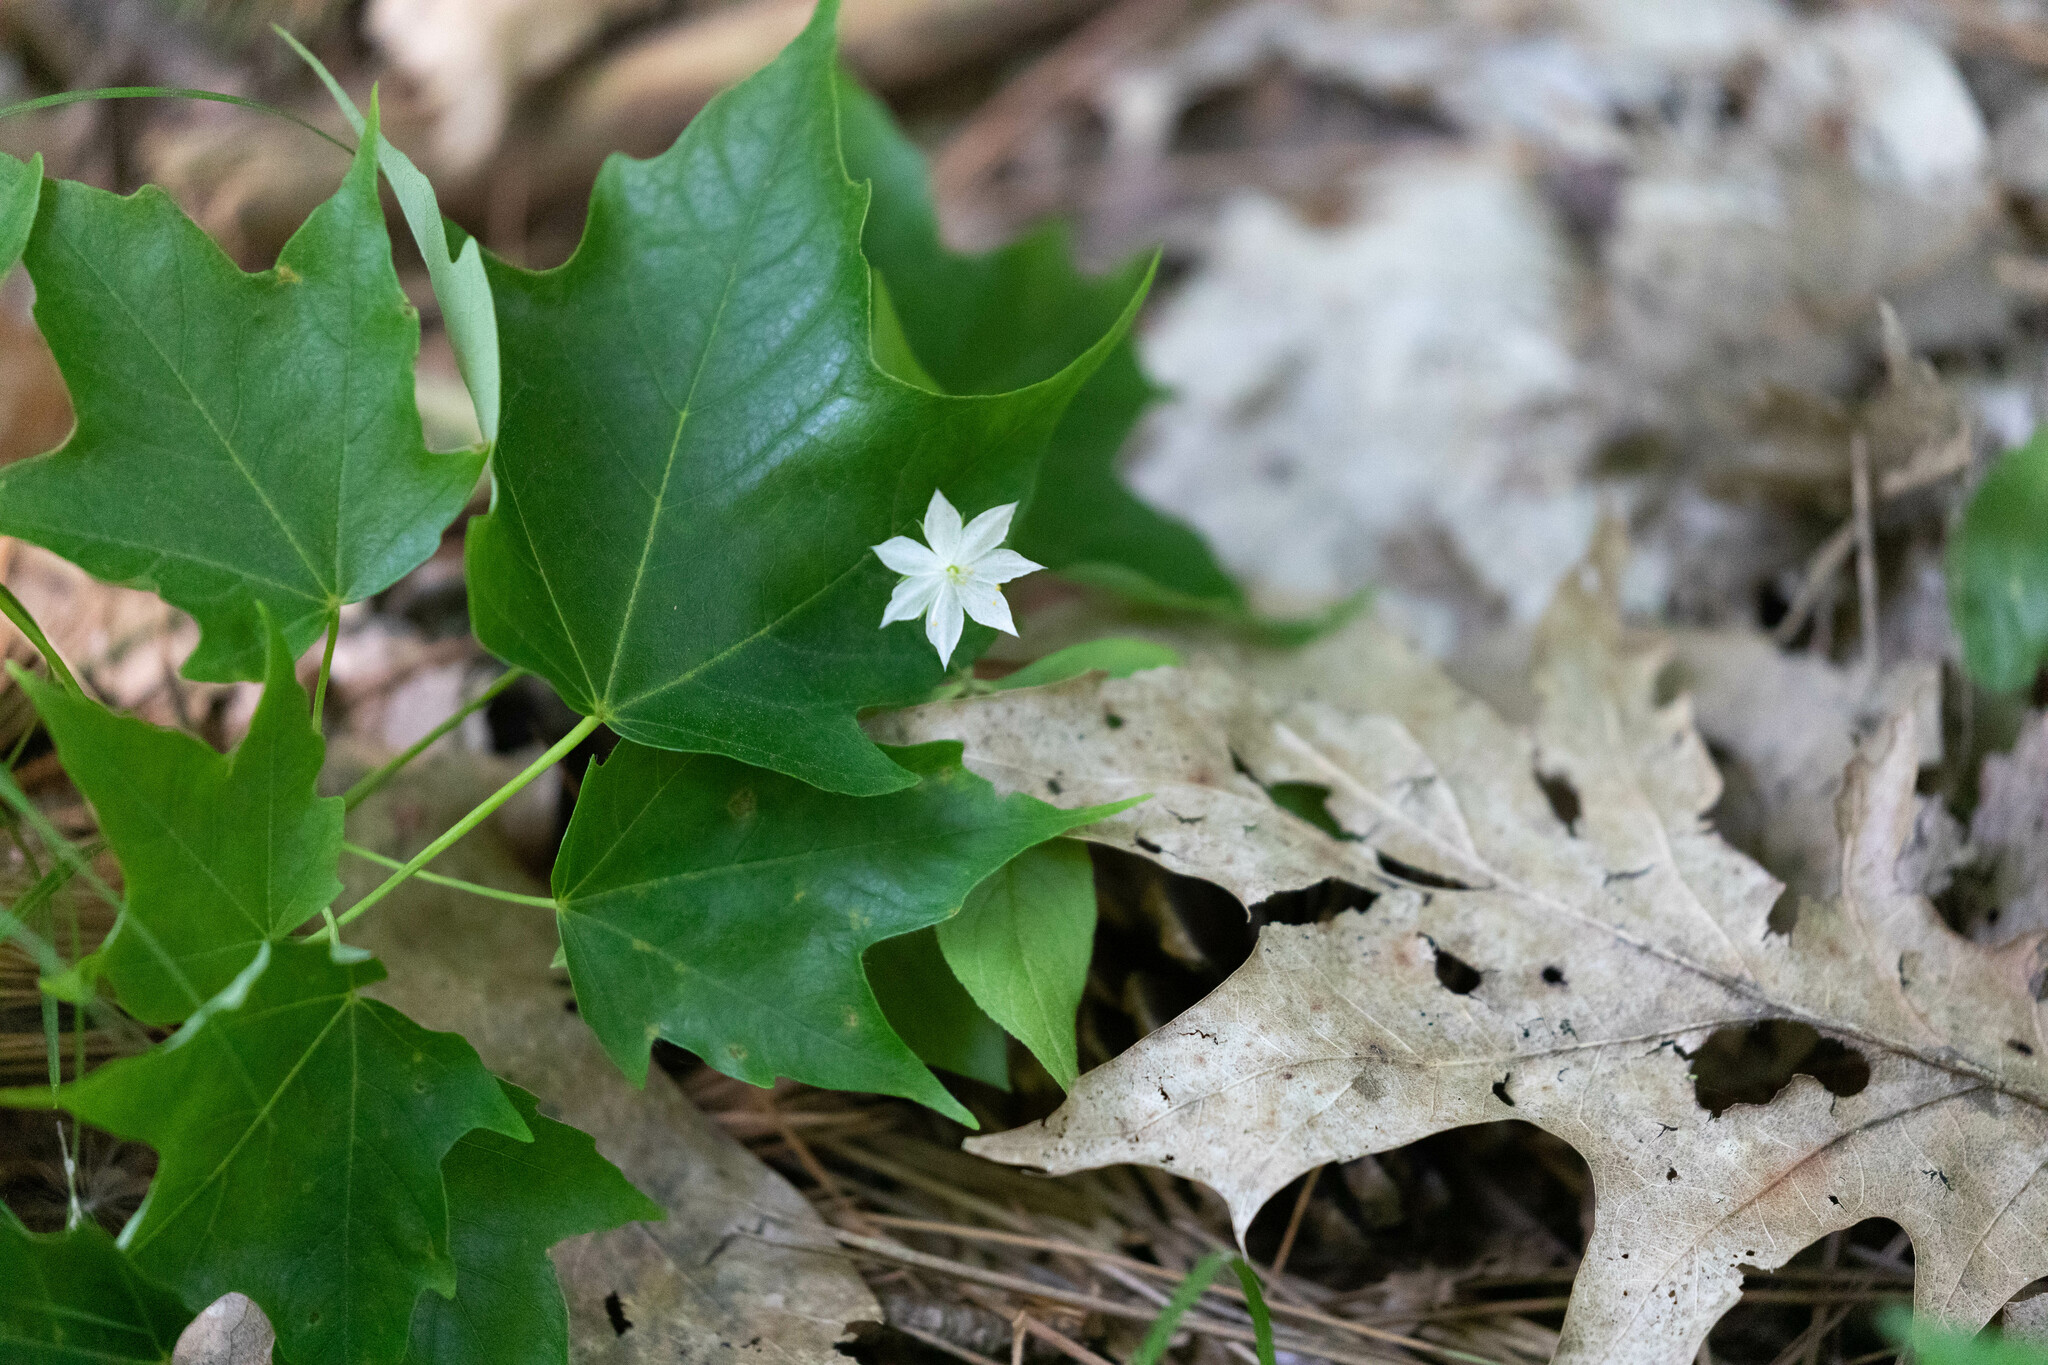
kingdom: Plantae
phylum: Tracheophyta
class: Magnoliopsida
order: Ericales
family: Primulaceae
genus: Lysimachia
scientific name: Lysimachia borealis
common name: American starflower
